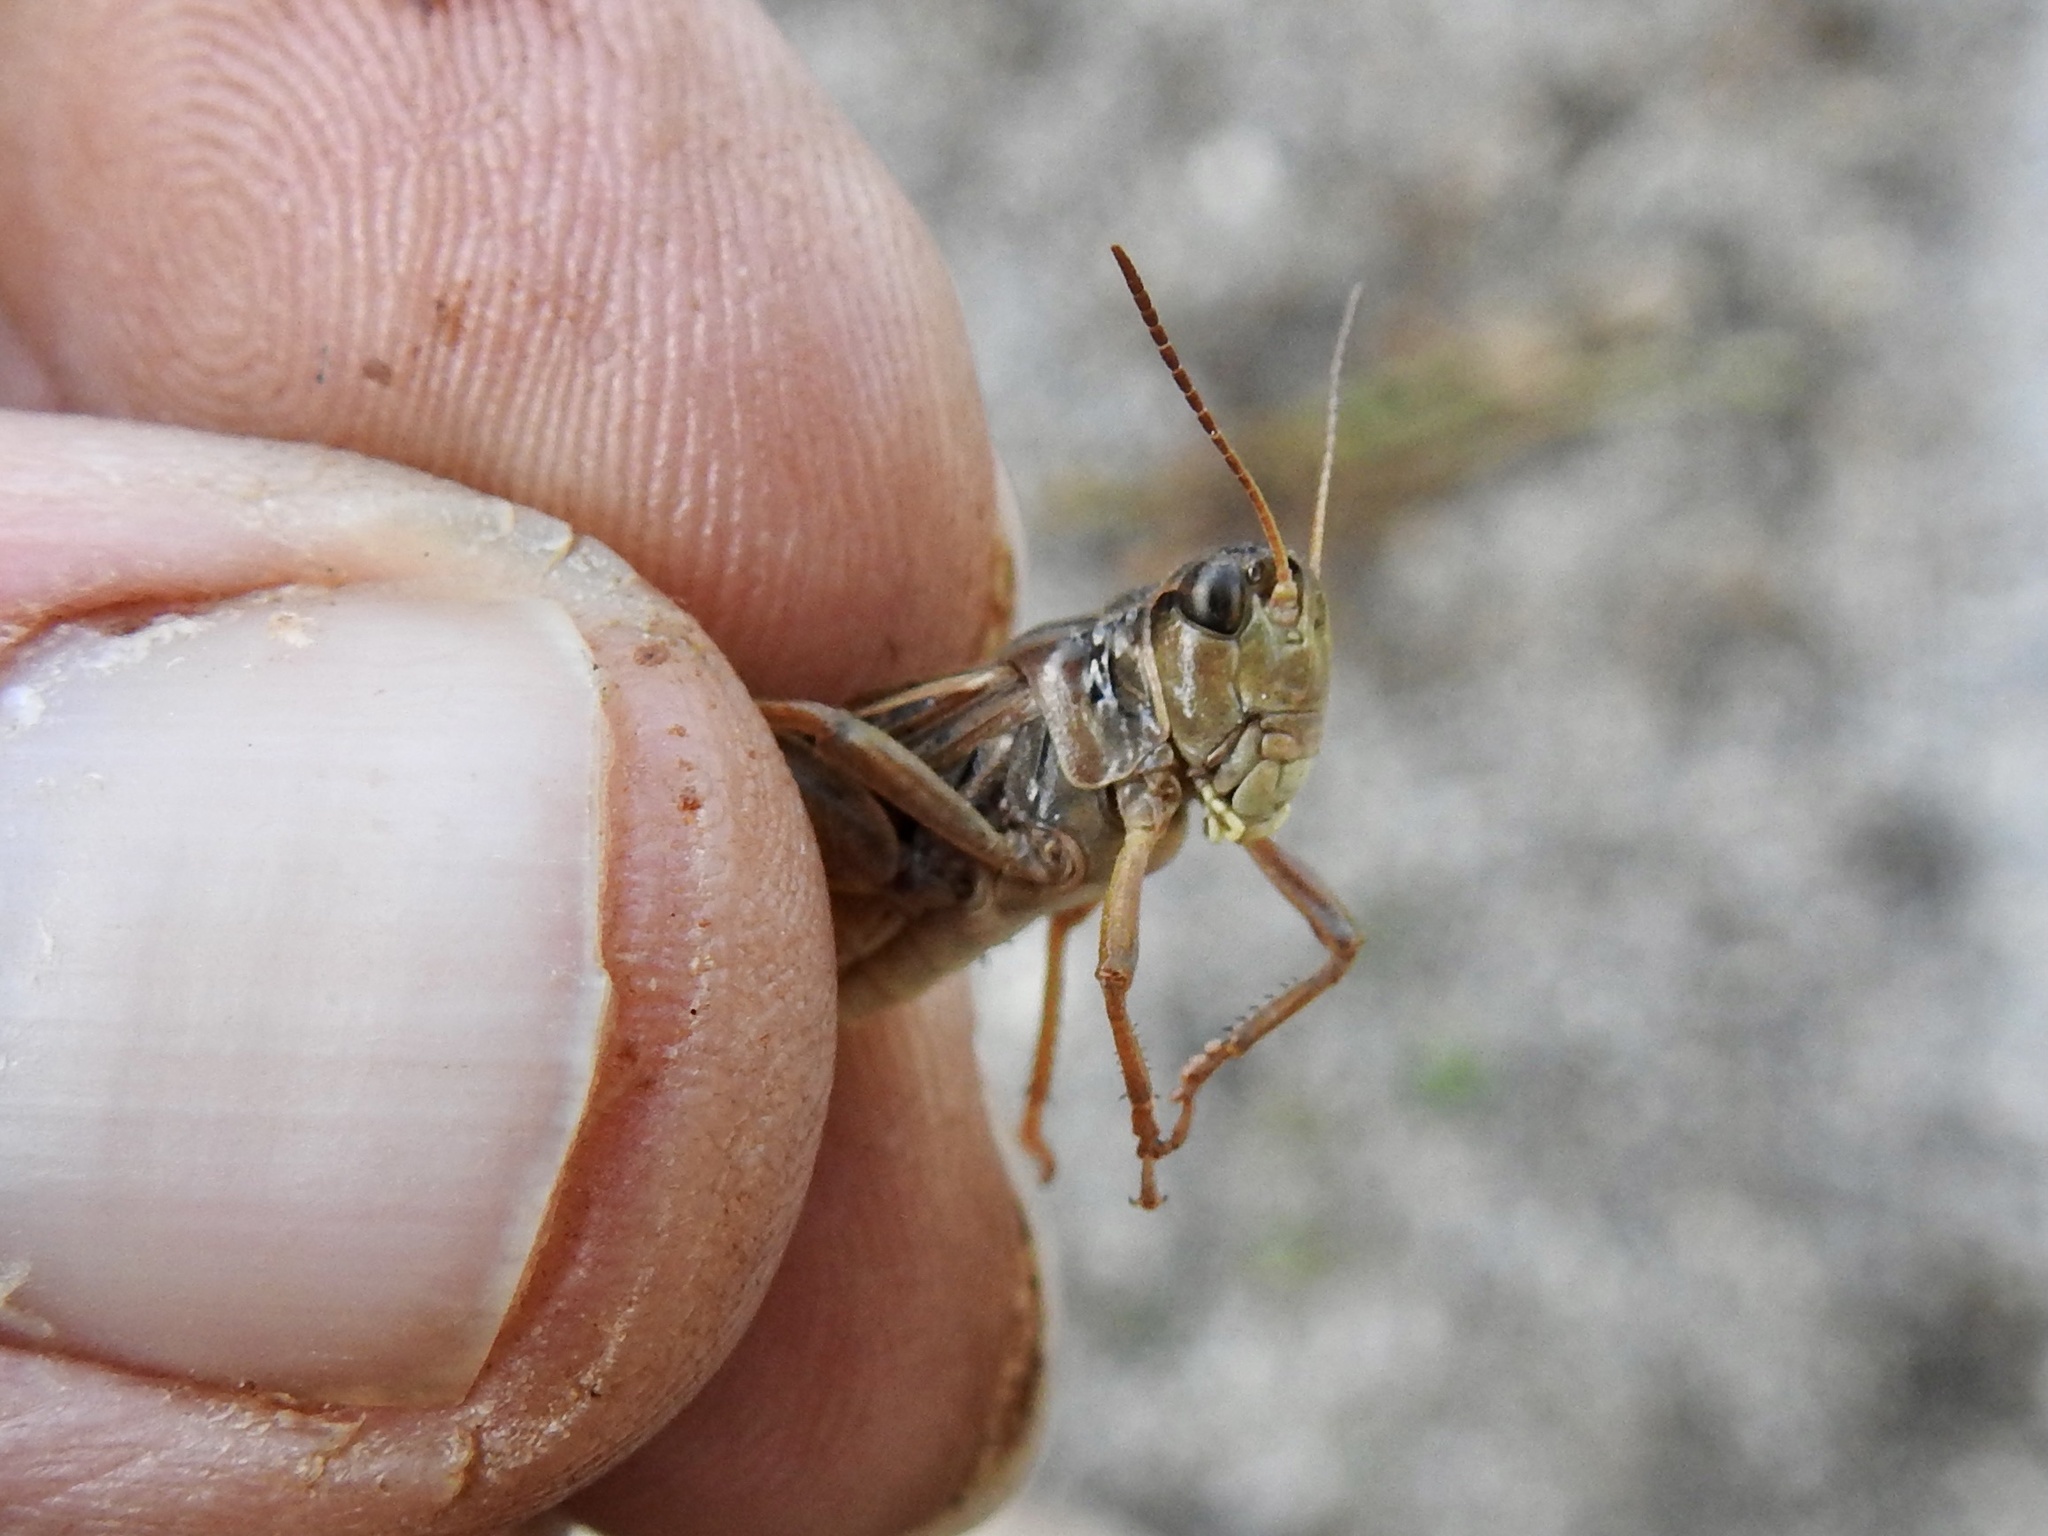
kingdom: Animalia
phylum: Arthropoda
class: Insecta
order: Orthoptera
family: Acrididae
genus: Camnula
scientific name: Camnula pellucida
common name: Clear-winged grasshopper
